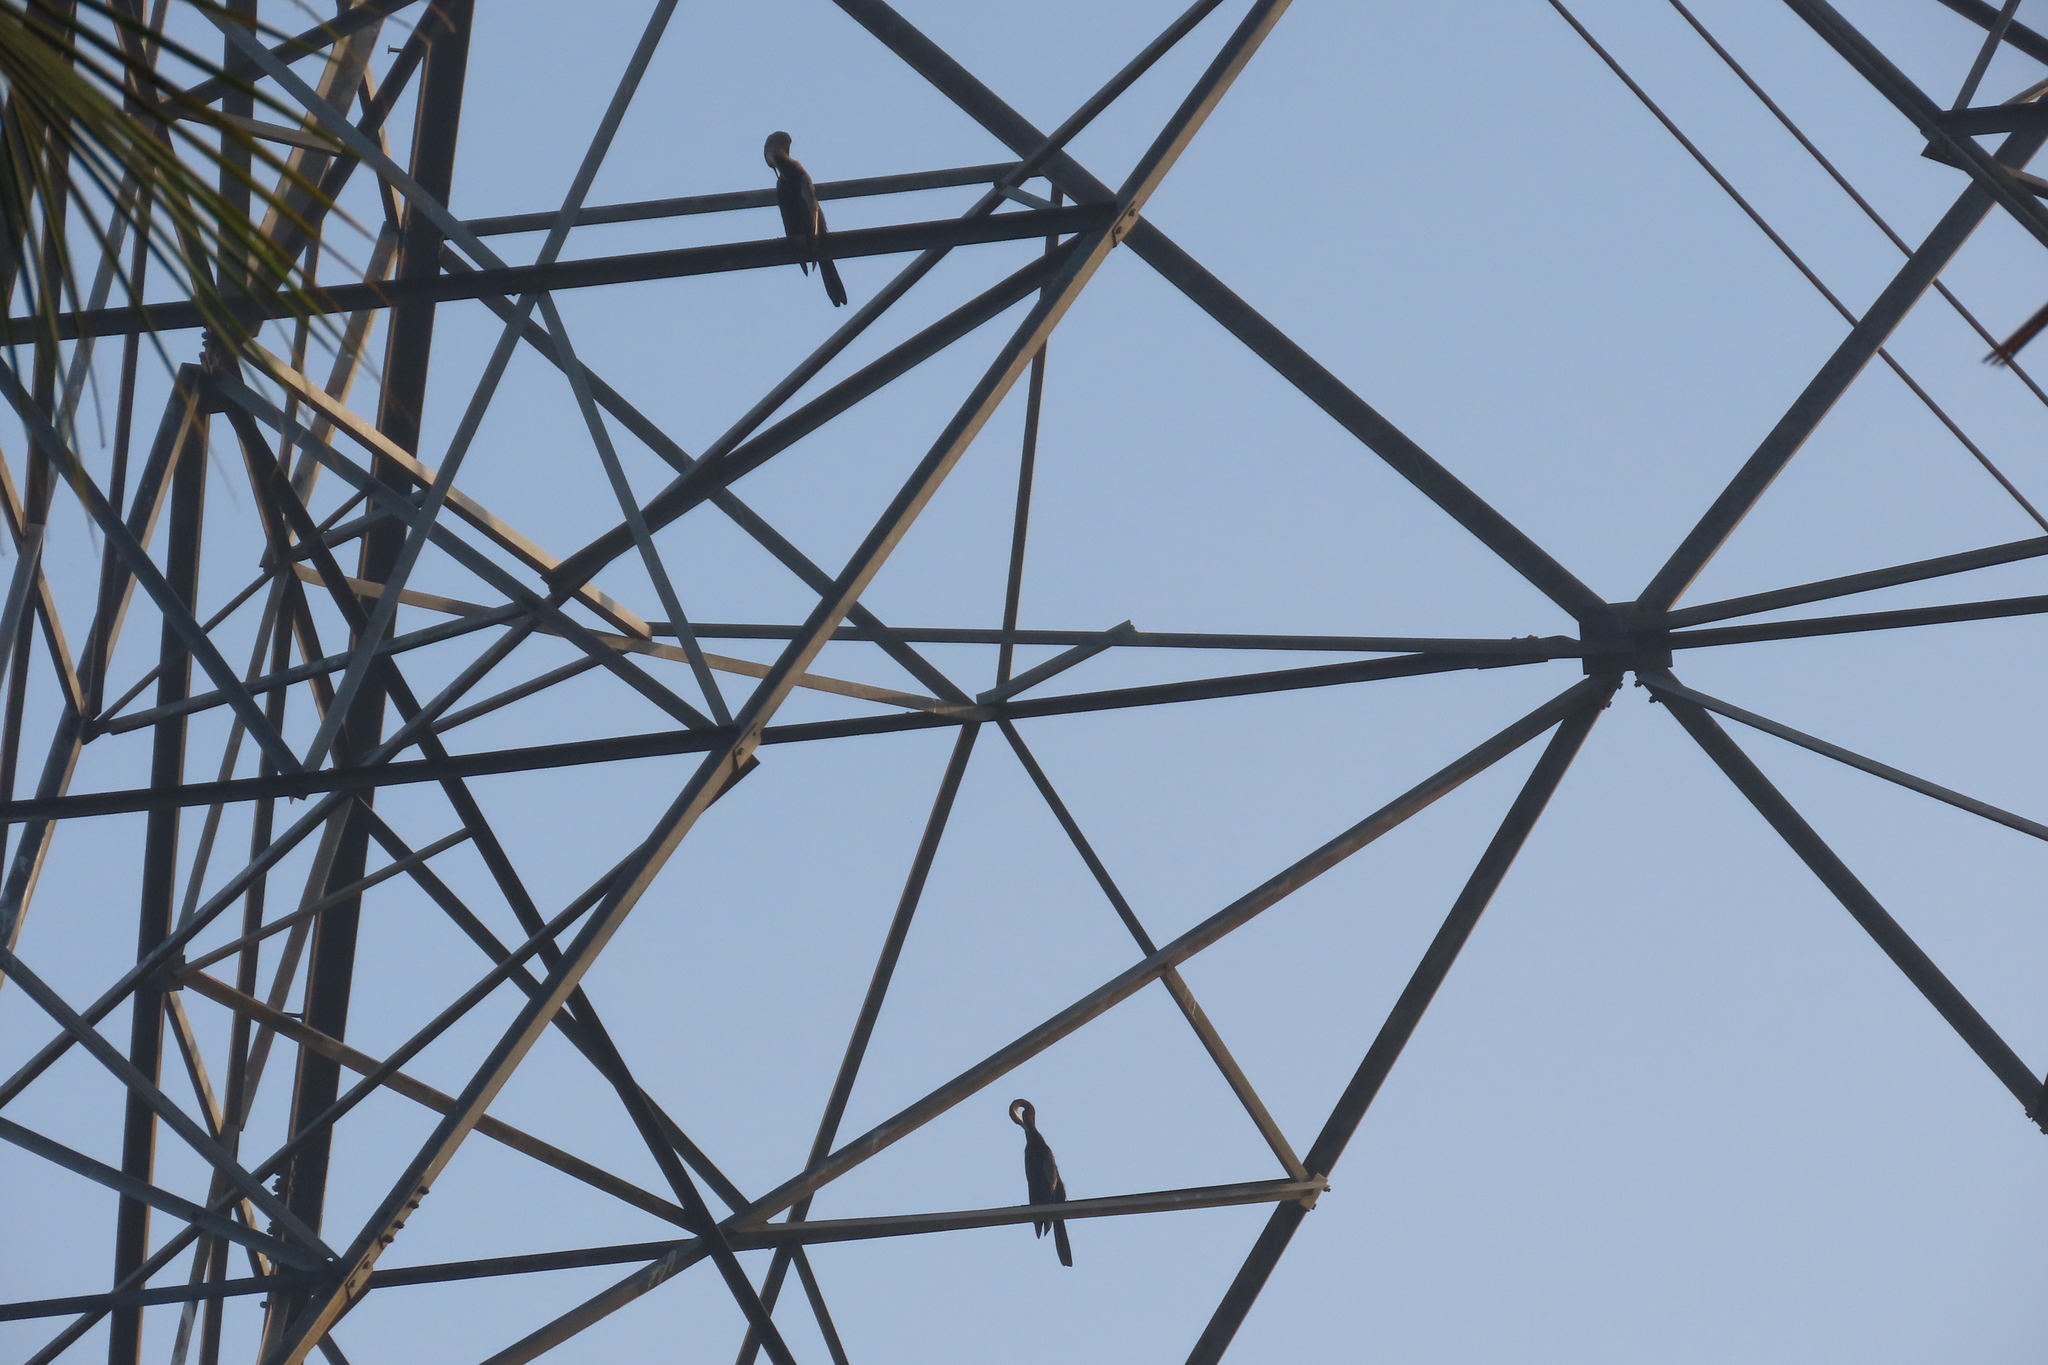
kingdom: Animalia
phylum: Chordata
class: Aves
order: Suliformes
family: Anhingidae
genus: Anhinga
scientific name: Anhinga melanogaster
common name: Oriental darter
